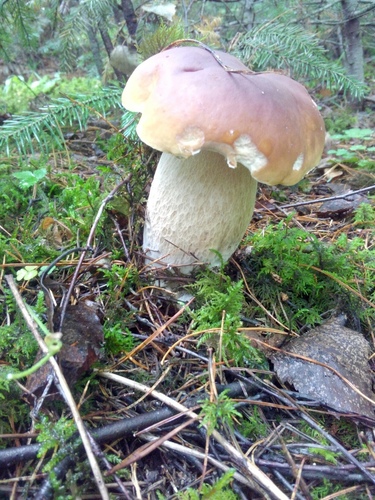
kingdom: Fungi
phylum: Basidiomycota
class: Agaricomycetes
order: Boletales
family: Boletaceae
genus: Boletus
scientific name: Boletus edulis
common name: Cep
